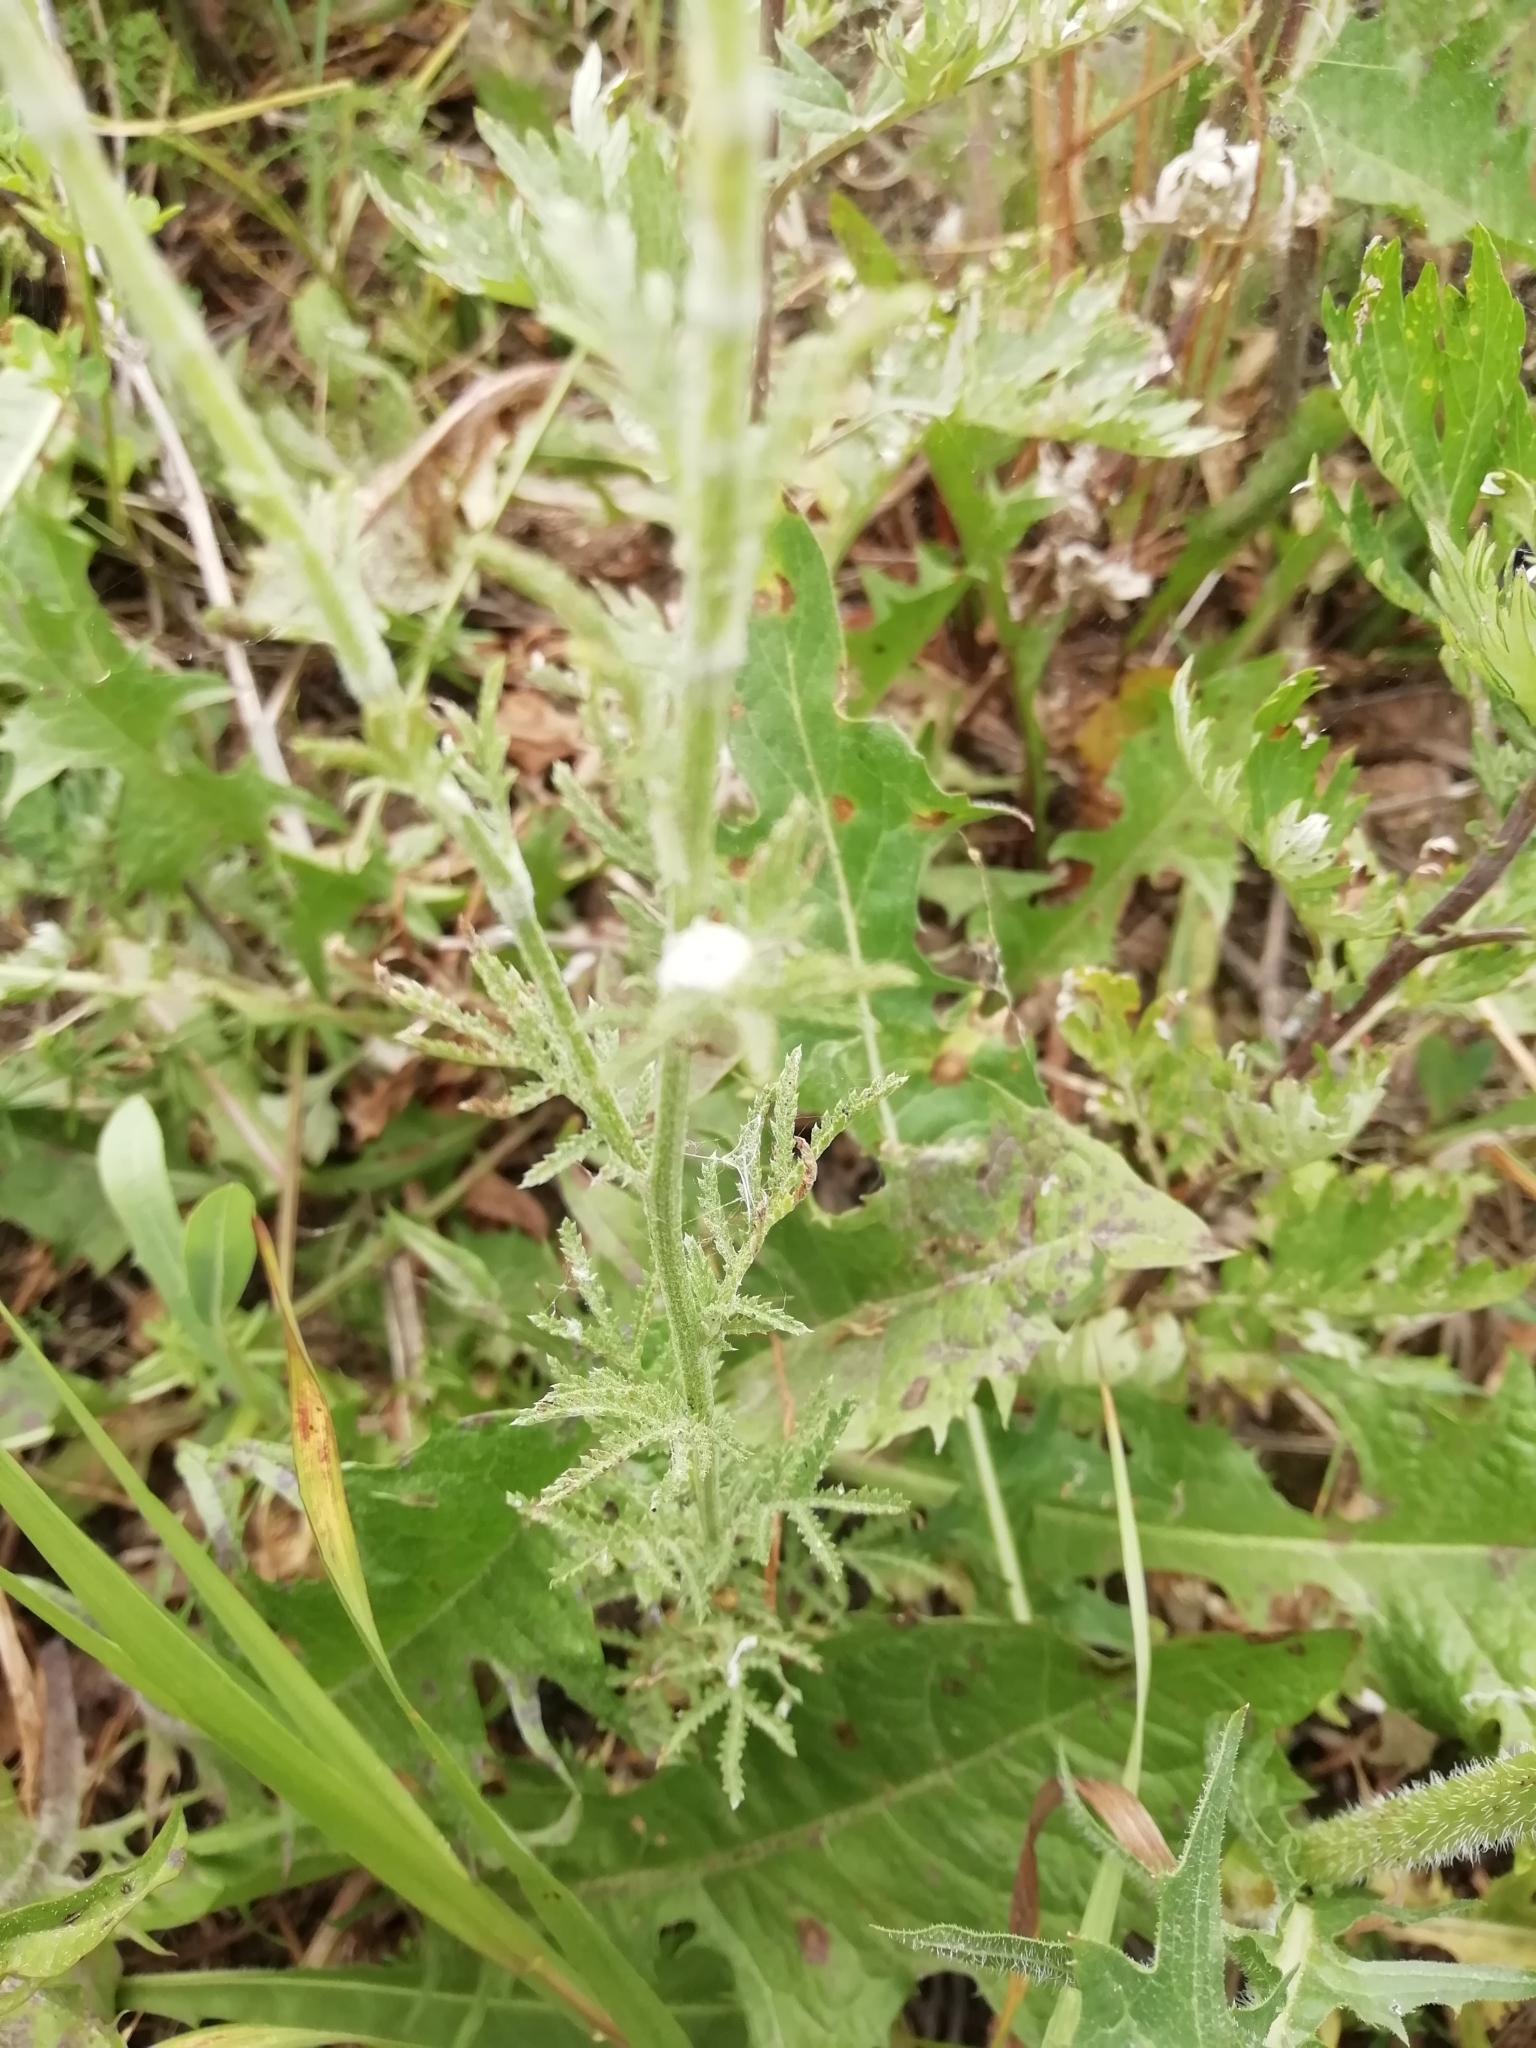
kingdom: Plantae
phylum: Tracheophyta
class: Magnoliopsida
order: Asterales
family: Asteraceae
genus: Cota
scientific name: Cota tinctoria
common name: Golden chamomile
